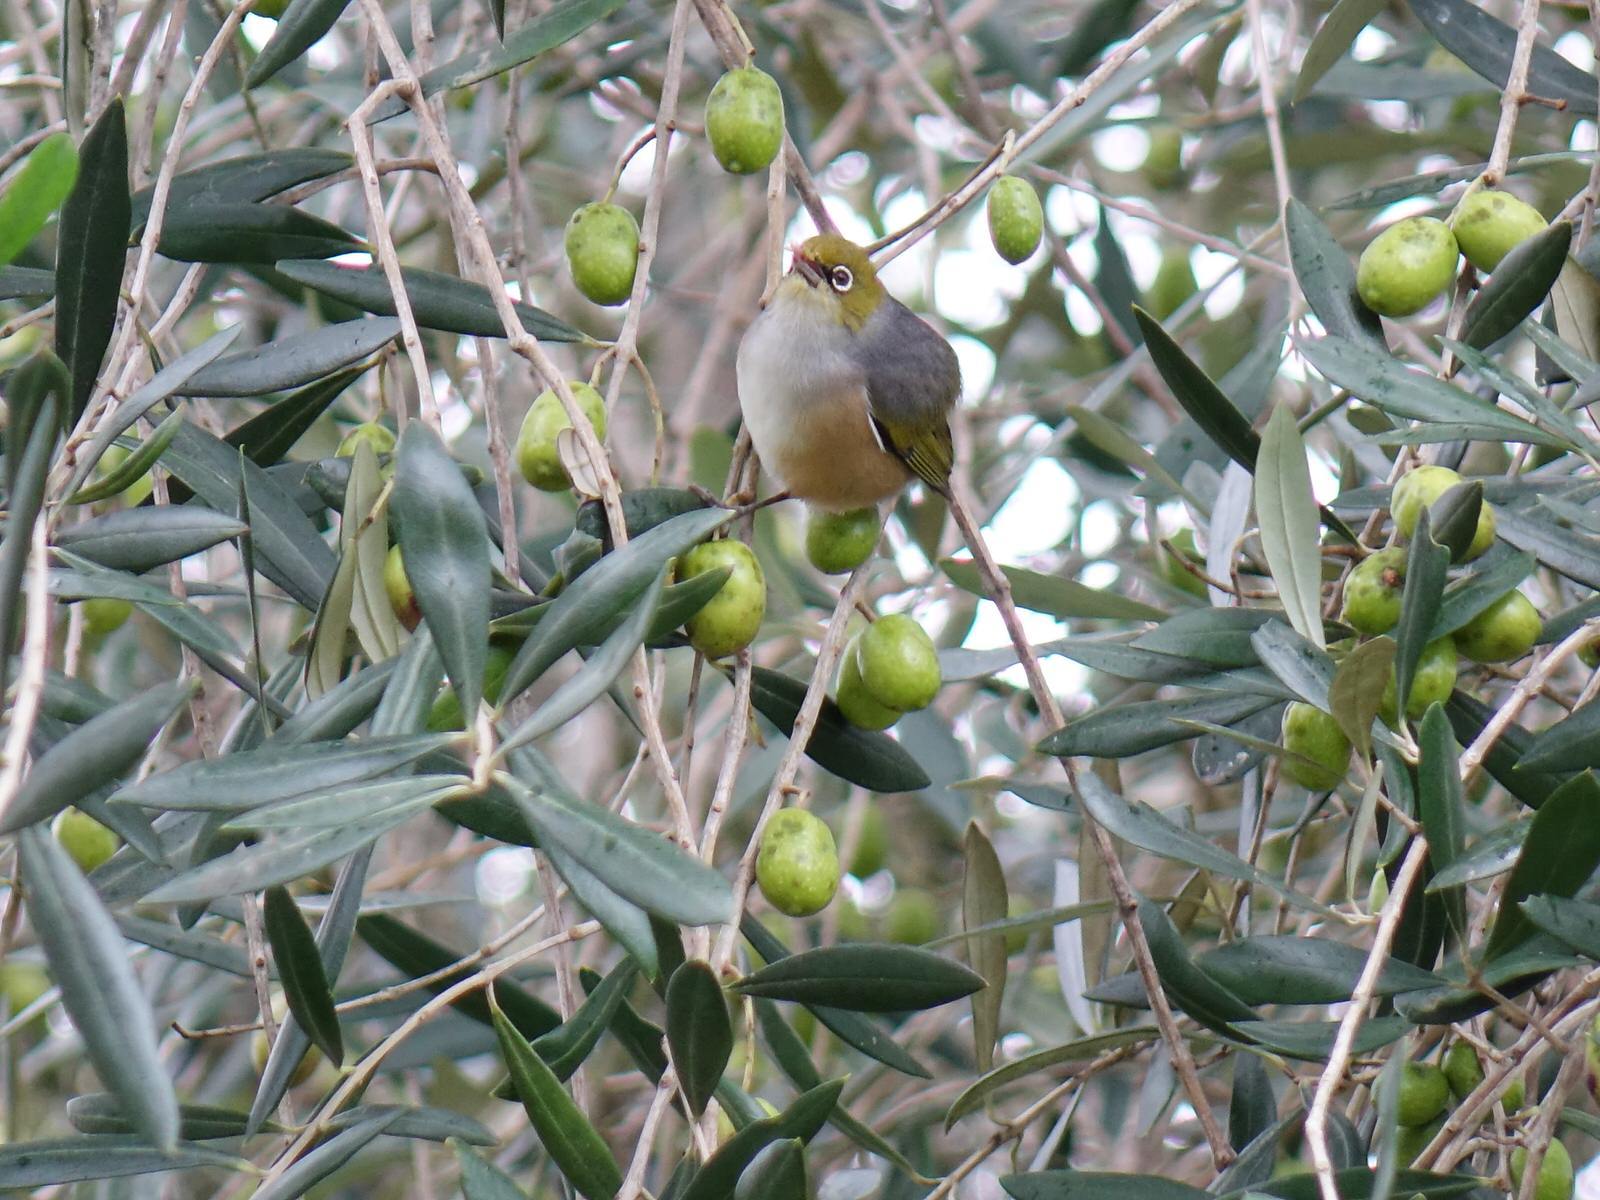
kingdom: Animalia
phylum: Chordata
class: Aves
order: Passeriformes
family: Zosteropidae
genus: Zosterops
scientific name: Zosterops lateralis
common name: Silvereye
